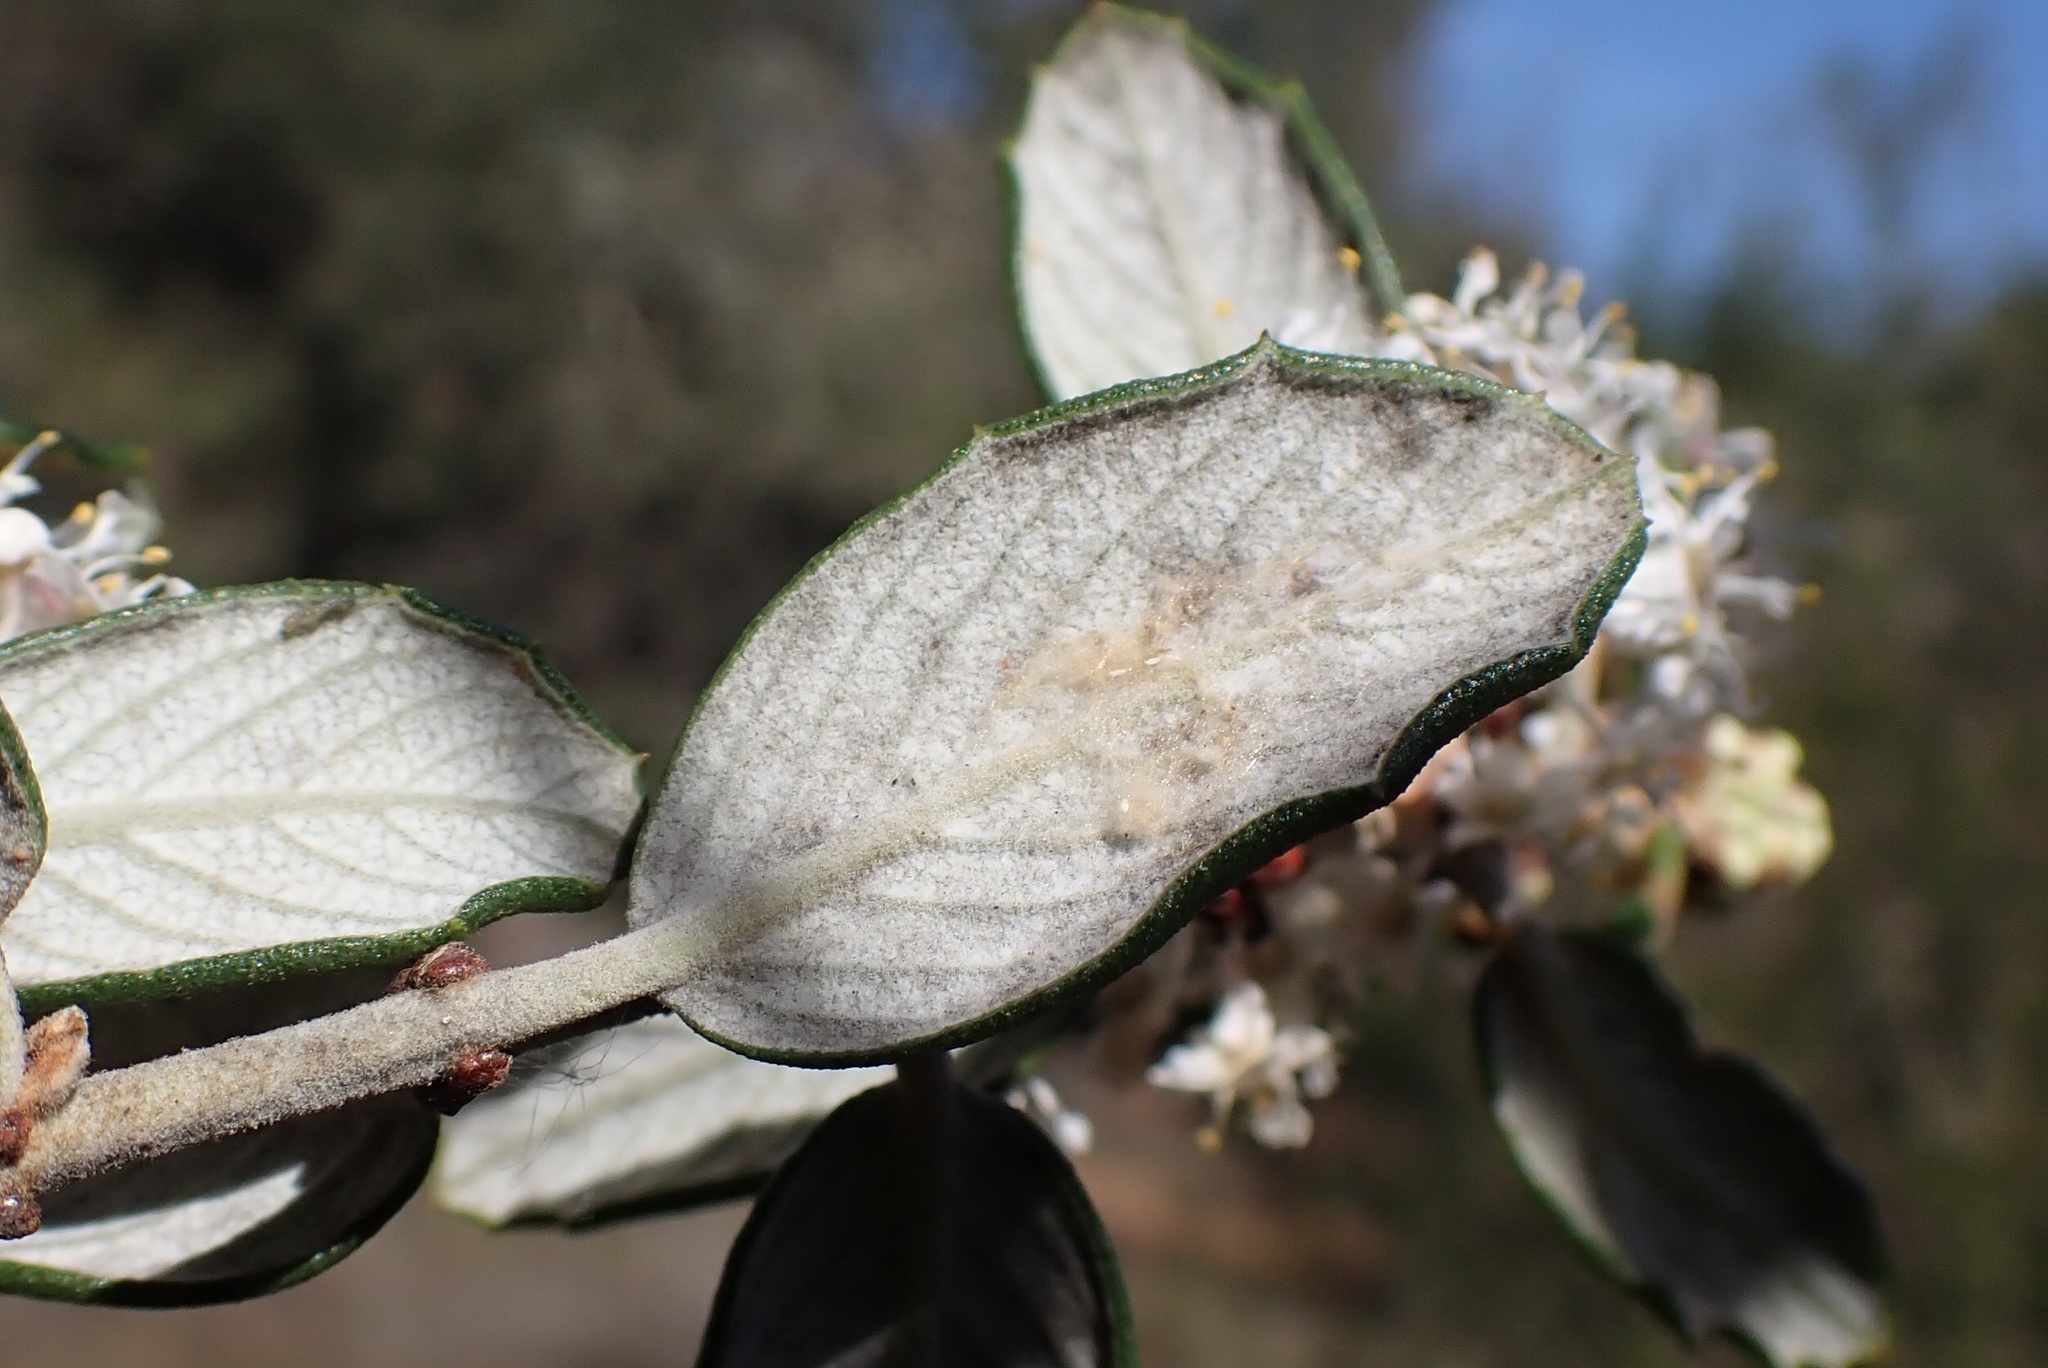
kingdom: Plantae
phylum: Tracheophyta
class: Magnoliopsida
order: Rosales
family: Rhamnaceae
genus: Ceanothus
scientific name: Ceanothus crassifolius
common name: Hoaryleaf ceanothus
